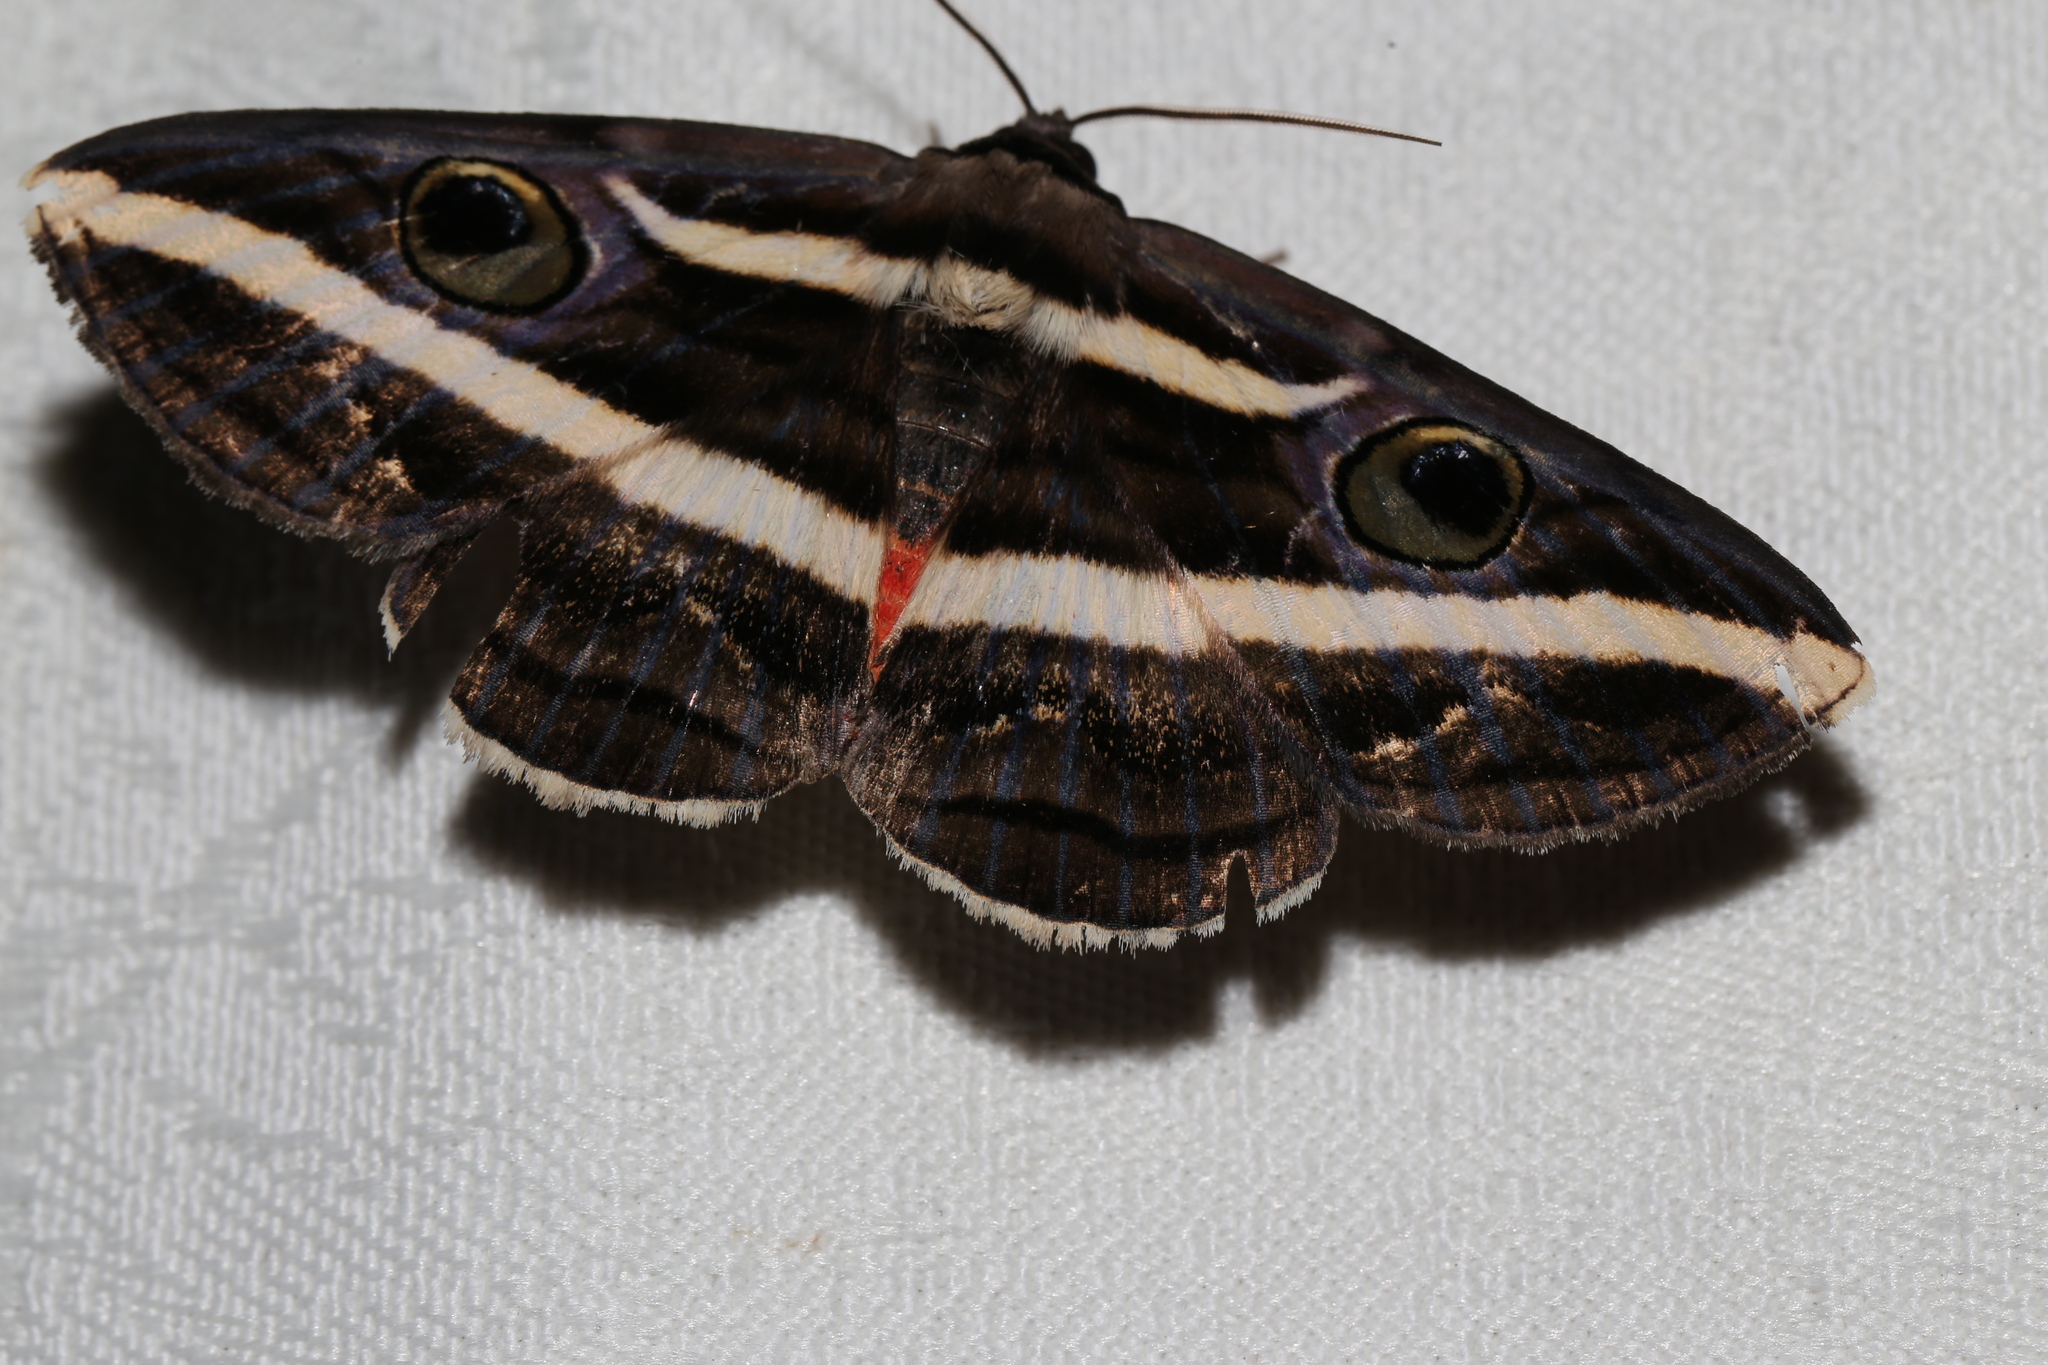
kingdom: Animalia
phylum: Arthropoda
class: Insecta
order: Lepidoptera
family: Erebidae
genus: Donuca
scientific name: Donuca rubropicta
